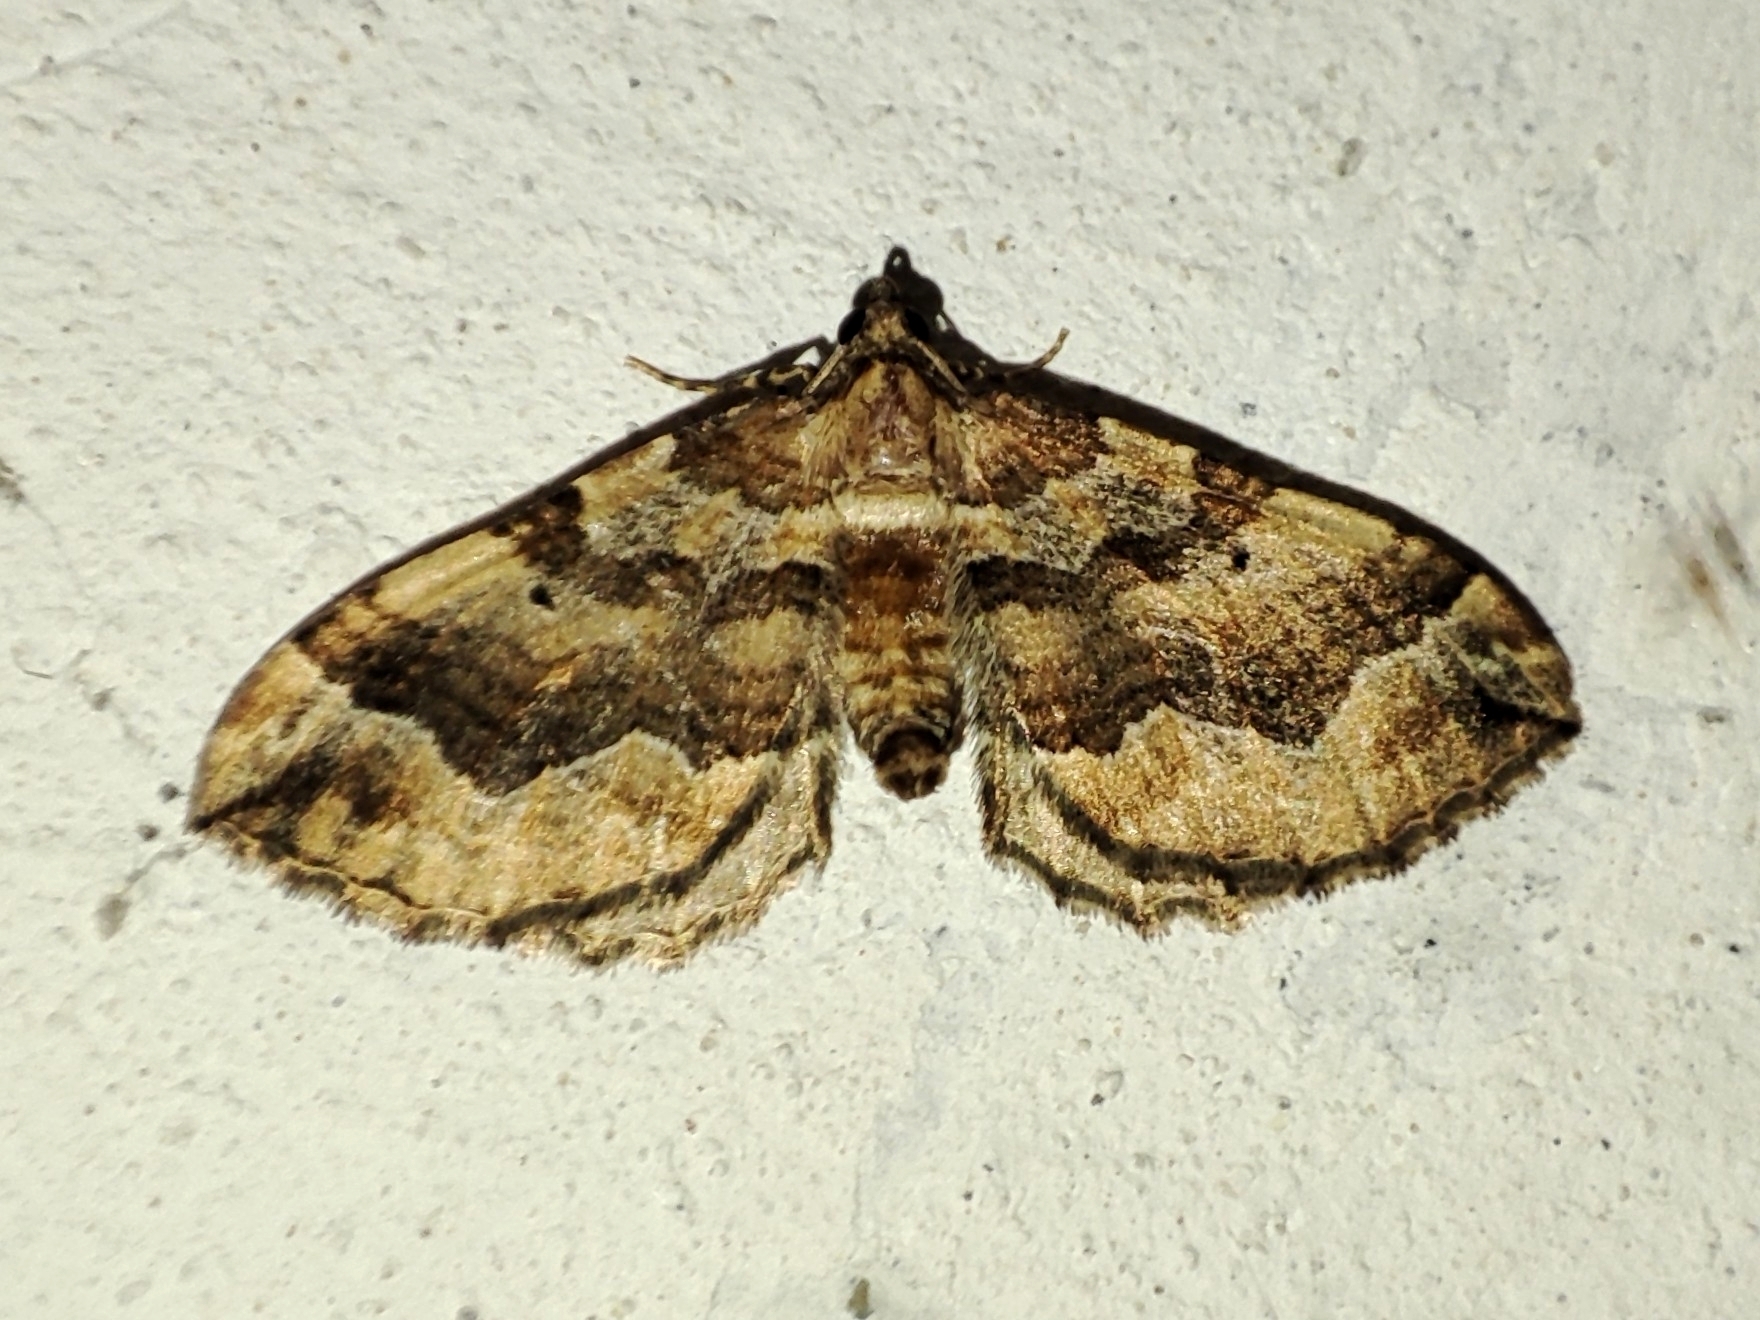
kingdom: Animalia
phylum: Arthropoda
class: Insecta
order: Lepidoptera
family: Geometridae
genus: Pelurga
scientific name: Pelurga comitata
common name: Dark spinach
